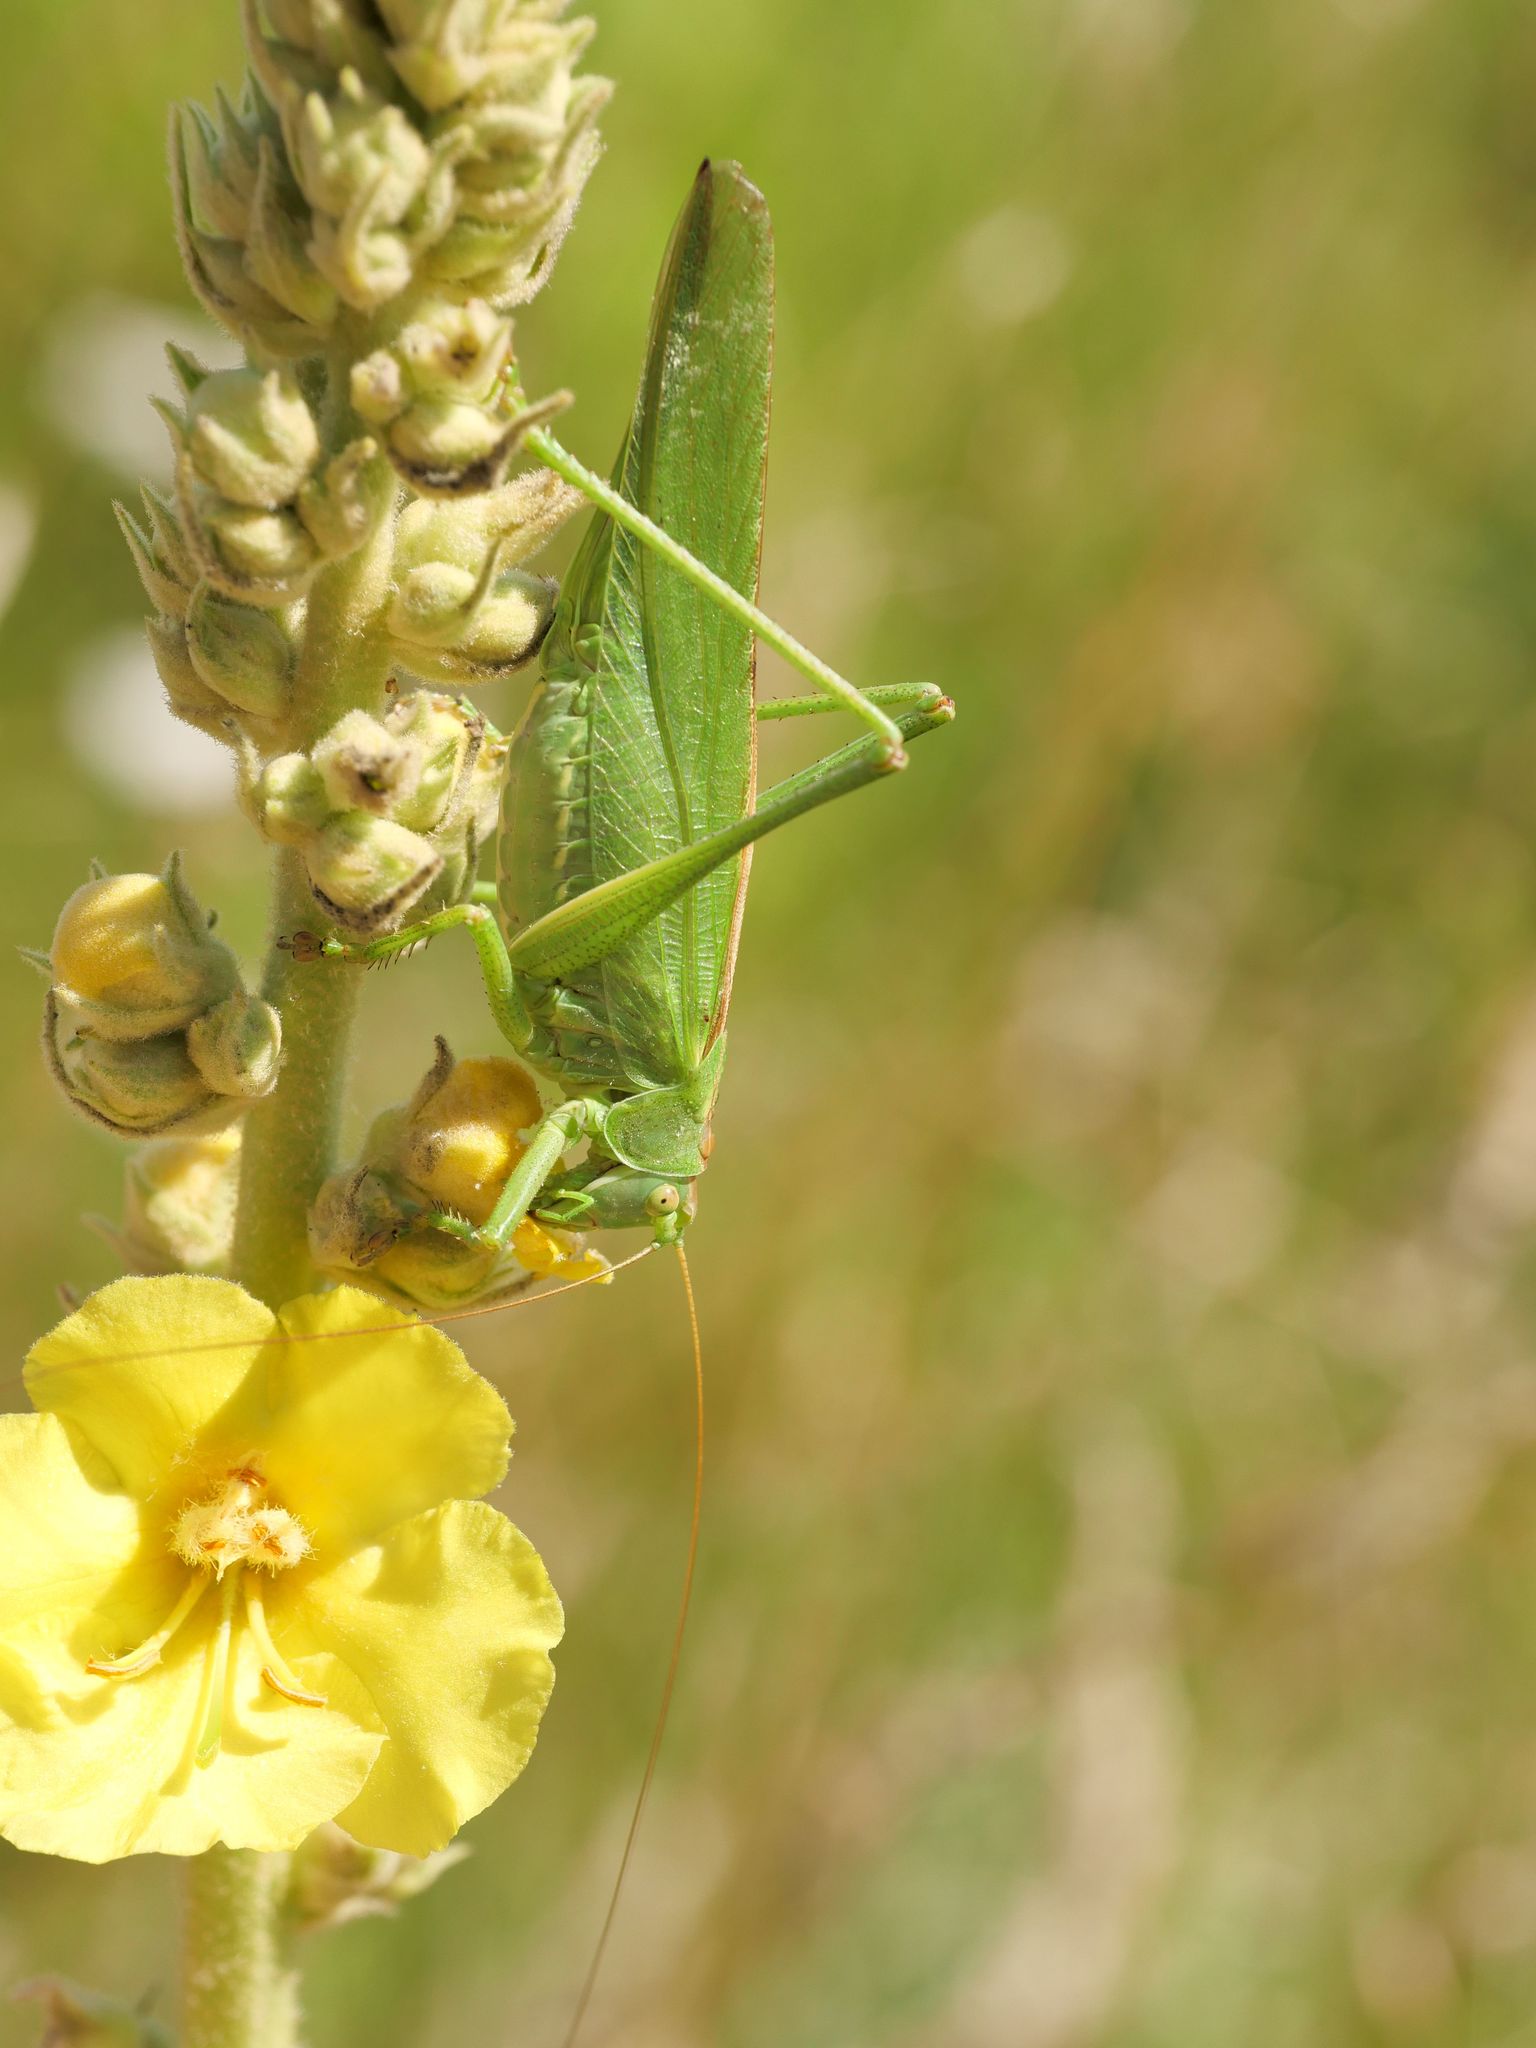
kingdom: Animalia
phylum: Arthropoda
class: Insecta
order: Orthoptera
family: Tettigoniidae
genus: Tettigonia
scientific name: Tettigonia viridissima
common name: Great green bush-cricket
